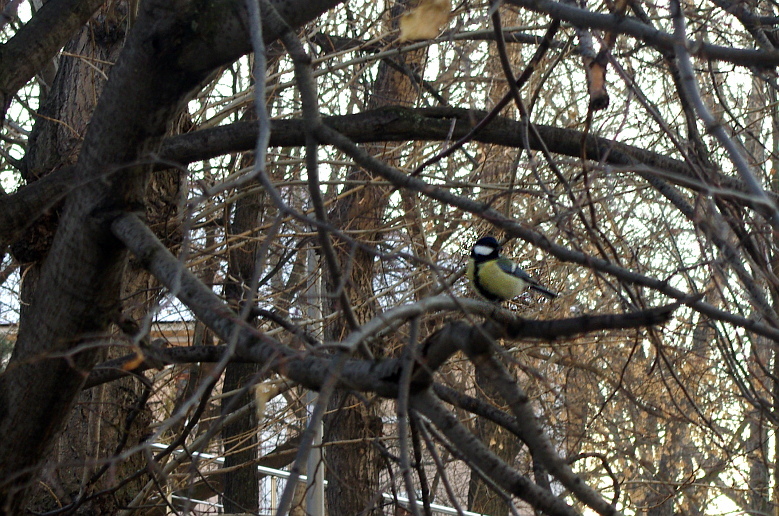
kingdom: Animalia
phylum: Chordata
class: Aves
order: Passeriformes
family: Paridae
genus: Parus
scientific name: Parus major
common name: Great tit
